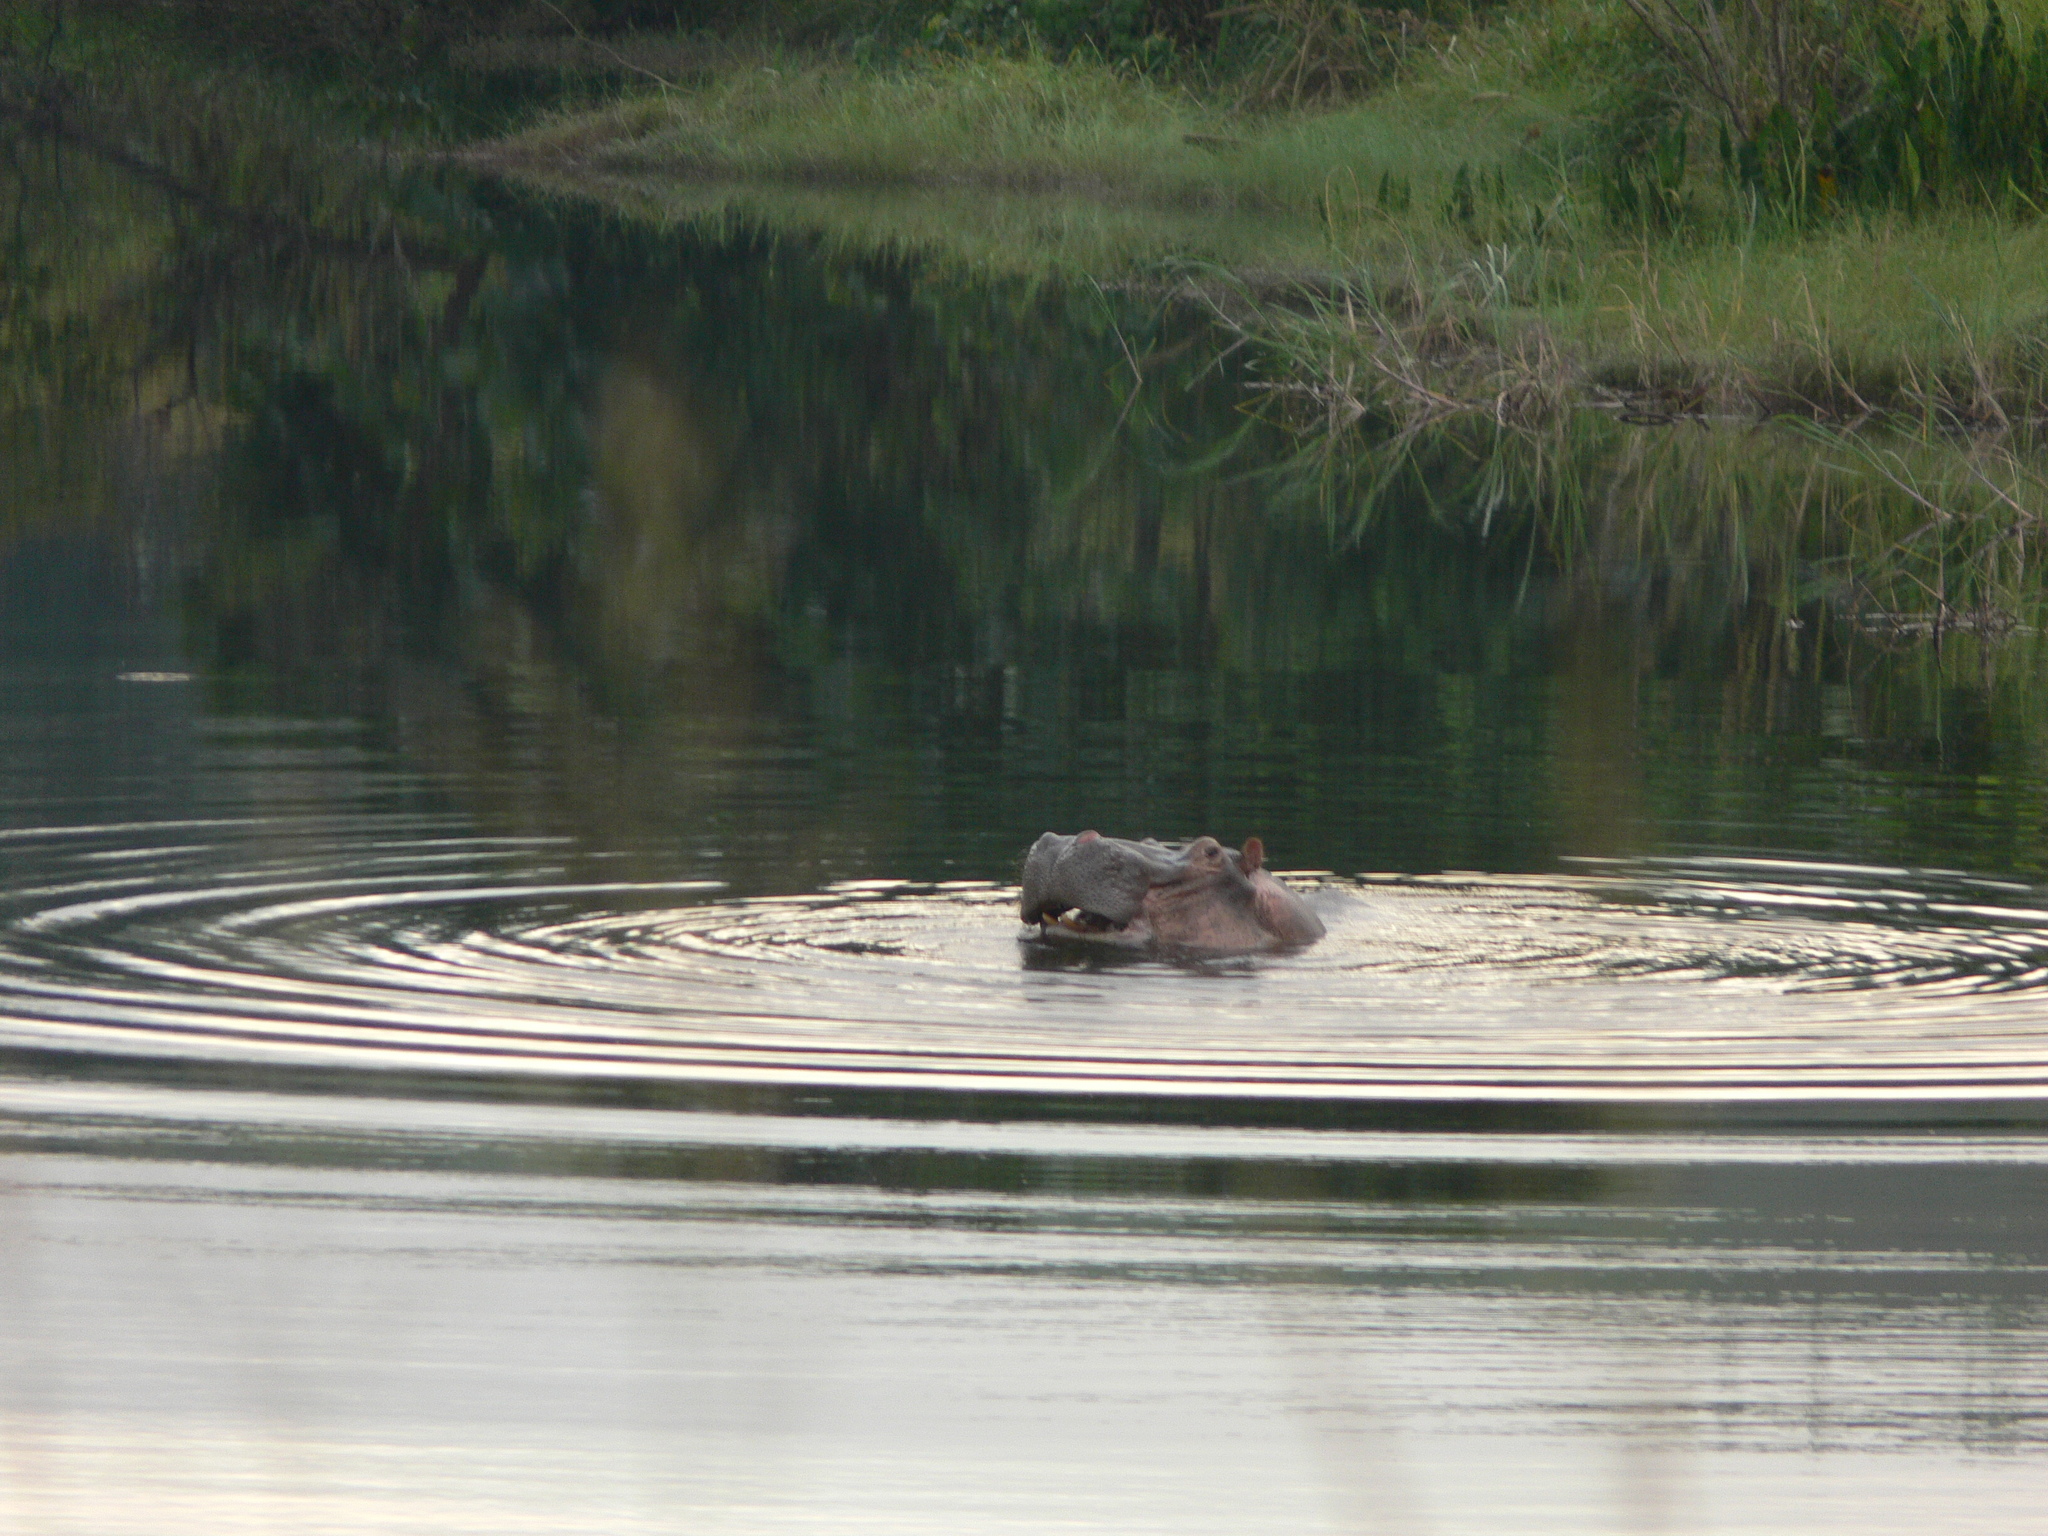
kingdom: Animalia
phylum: Chordata
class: Mammalia
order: Artiodactyla
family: Hippopotamidae
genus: Hippopotamus
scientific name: Hippopotamus amphibius
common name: Common hippopotamus
